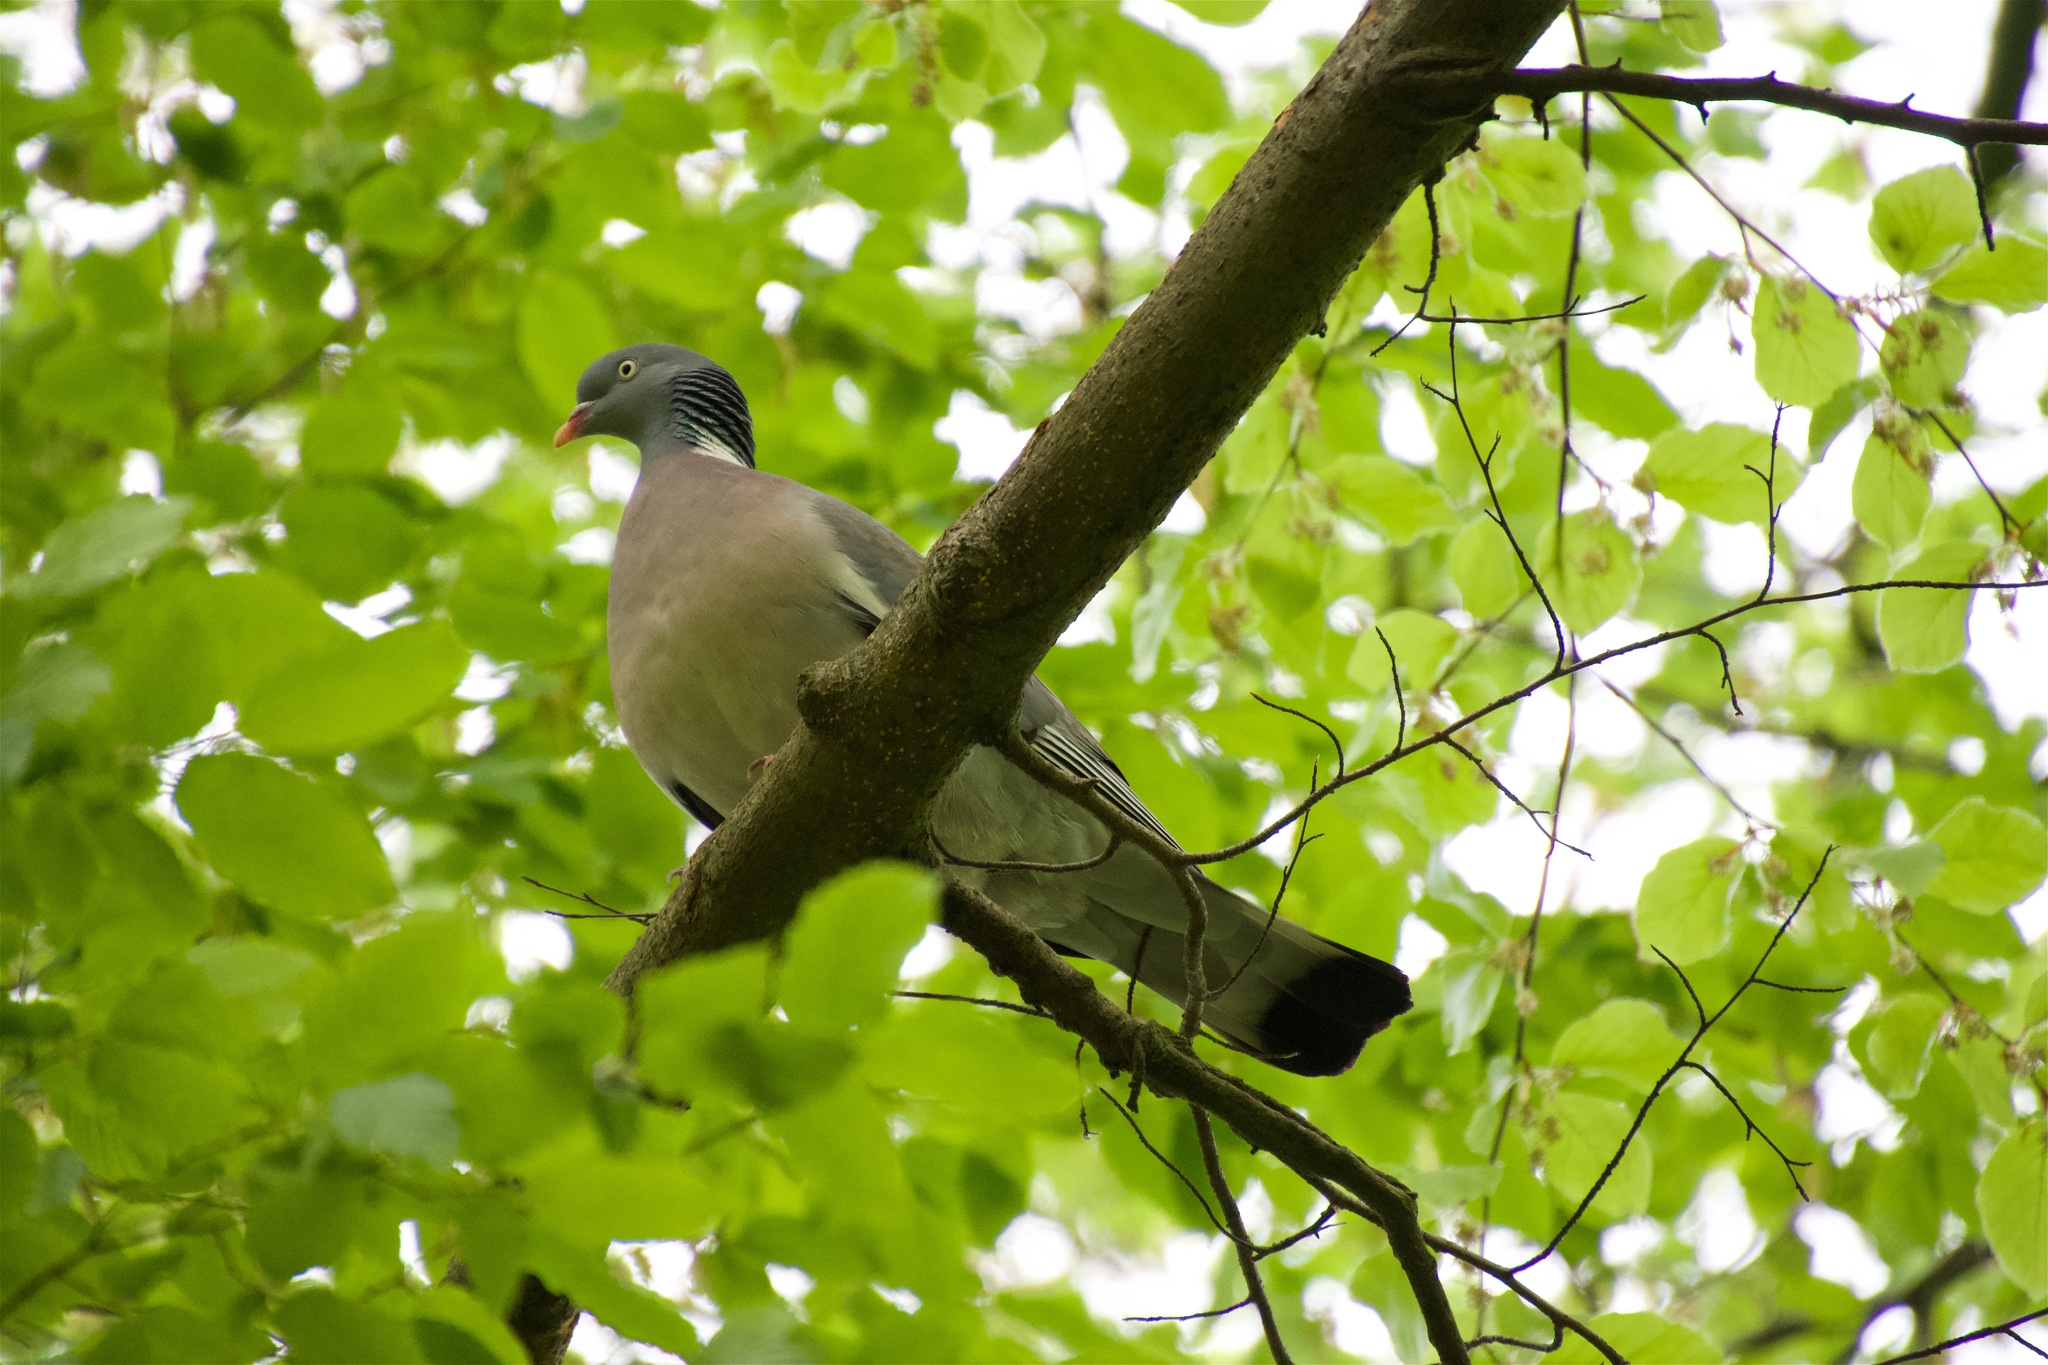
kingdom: Animalia
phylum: Chordata
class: Aves
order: Columbiformes
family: Columbidae
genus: Columba
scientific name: Columba palumbus
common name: Common wood pigeon
